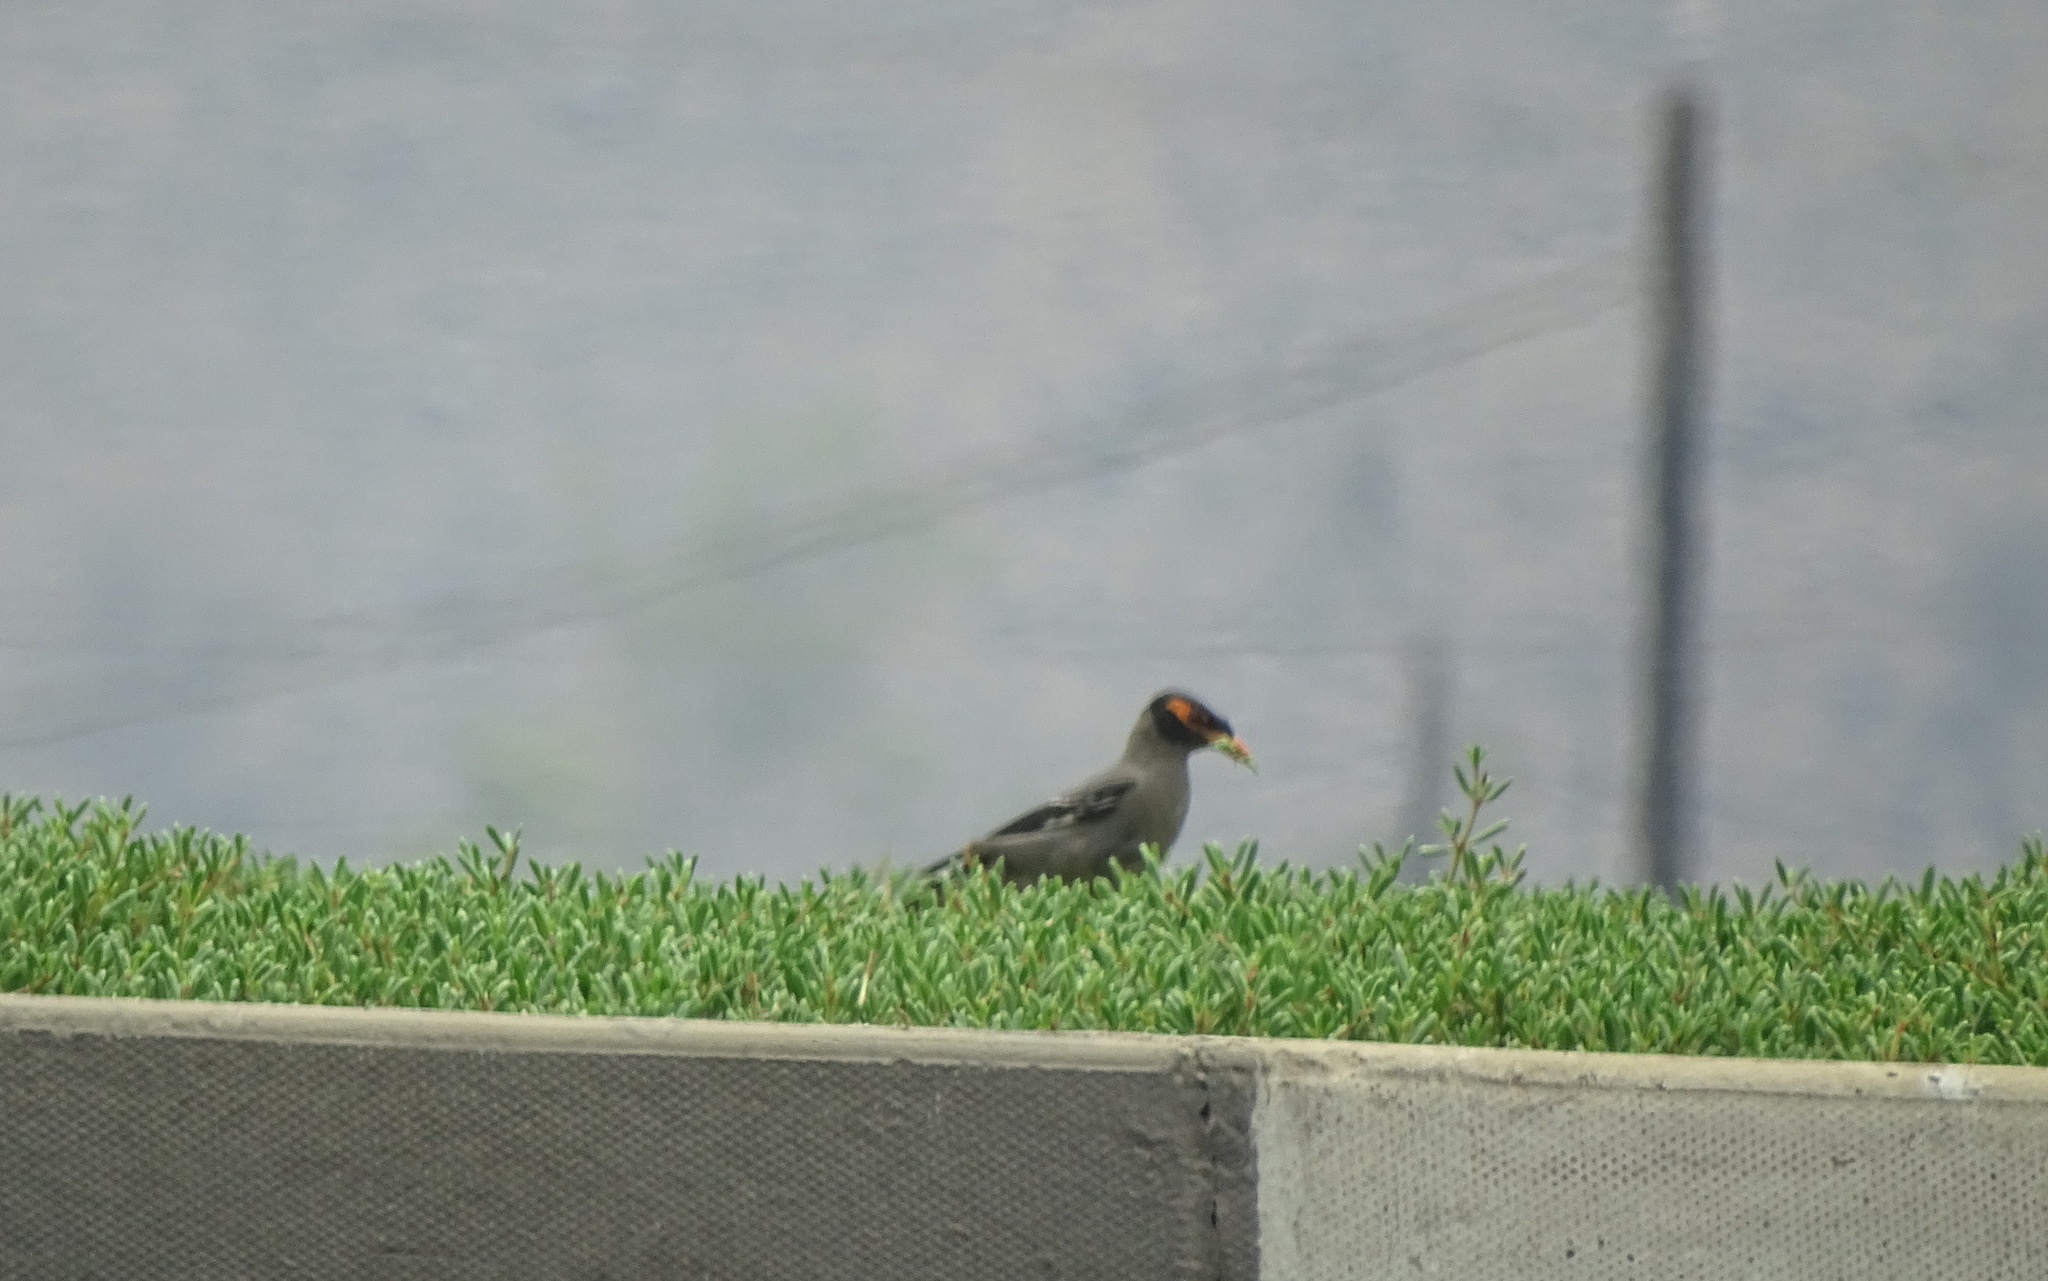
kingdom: Animalia
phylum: Chordata
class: Aves
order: Passeriformes
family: Sturnidae
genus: Acridotheres
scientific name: Acridotheres ginginianus
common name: Bank myna
